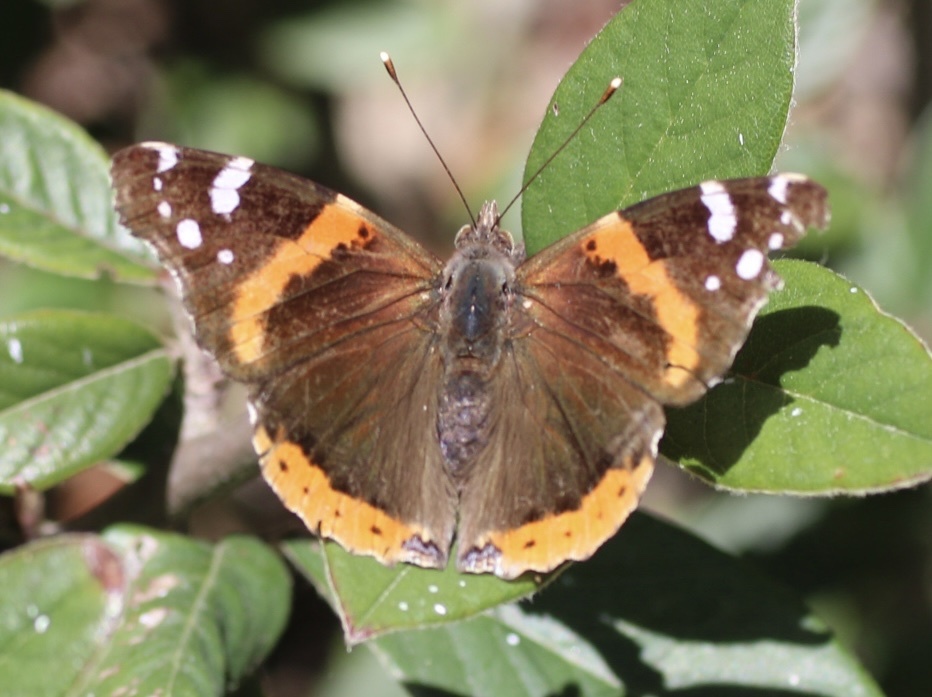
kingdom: Animalia
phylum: Arthropoda
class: Insecta
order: Lepidoptera
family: Nymphalidae
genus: Vanessa
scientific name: Vanessa atalanta
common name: Red admiral
